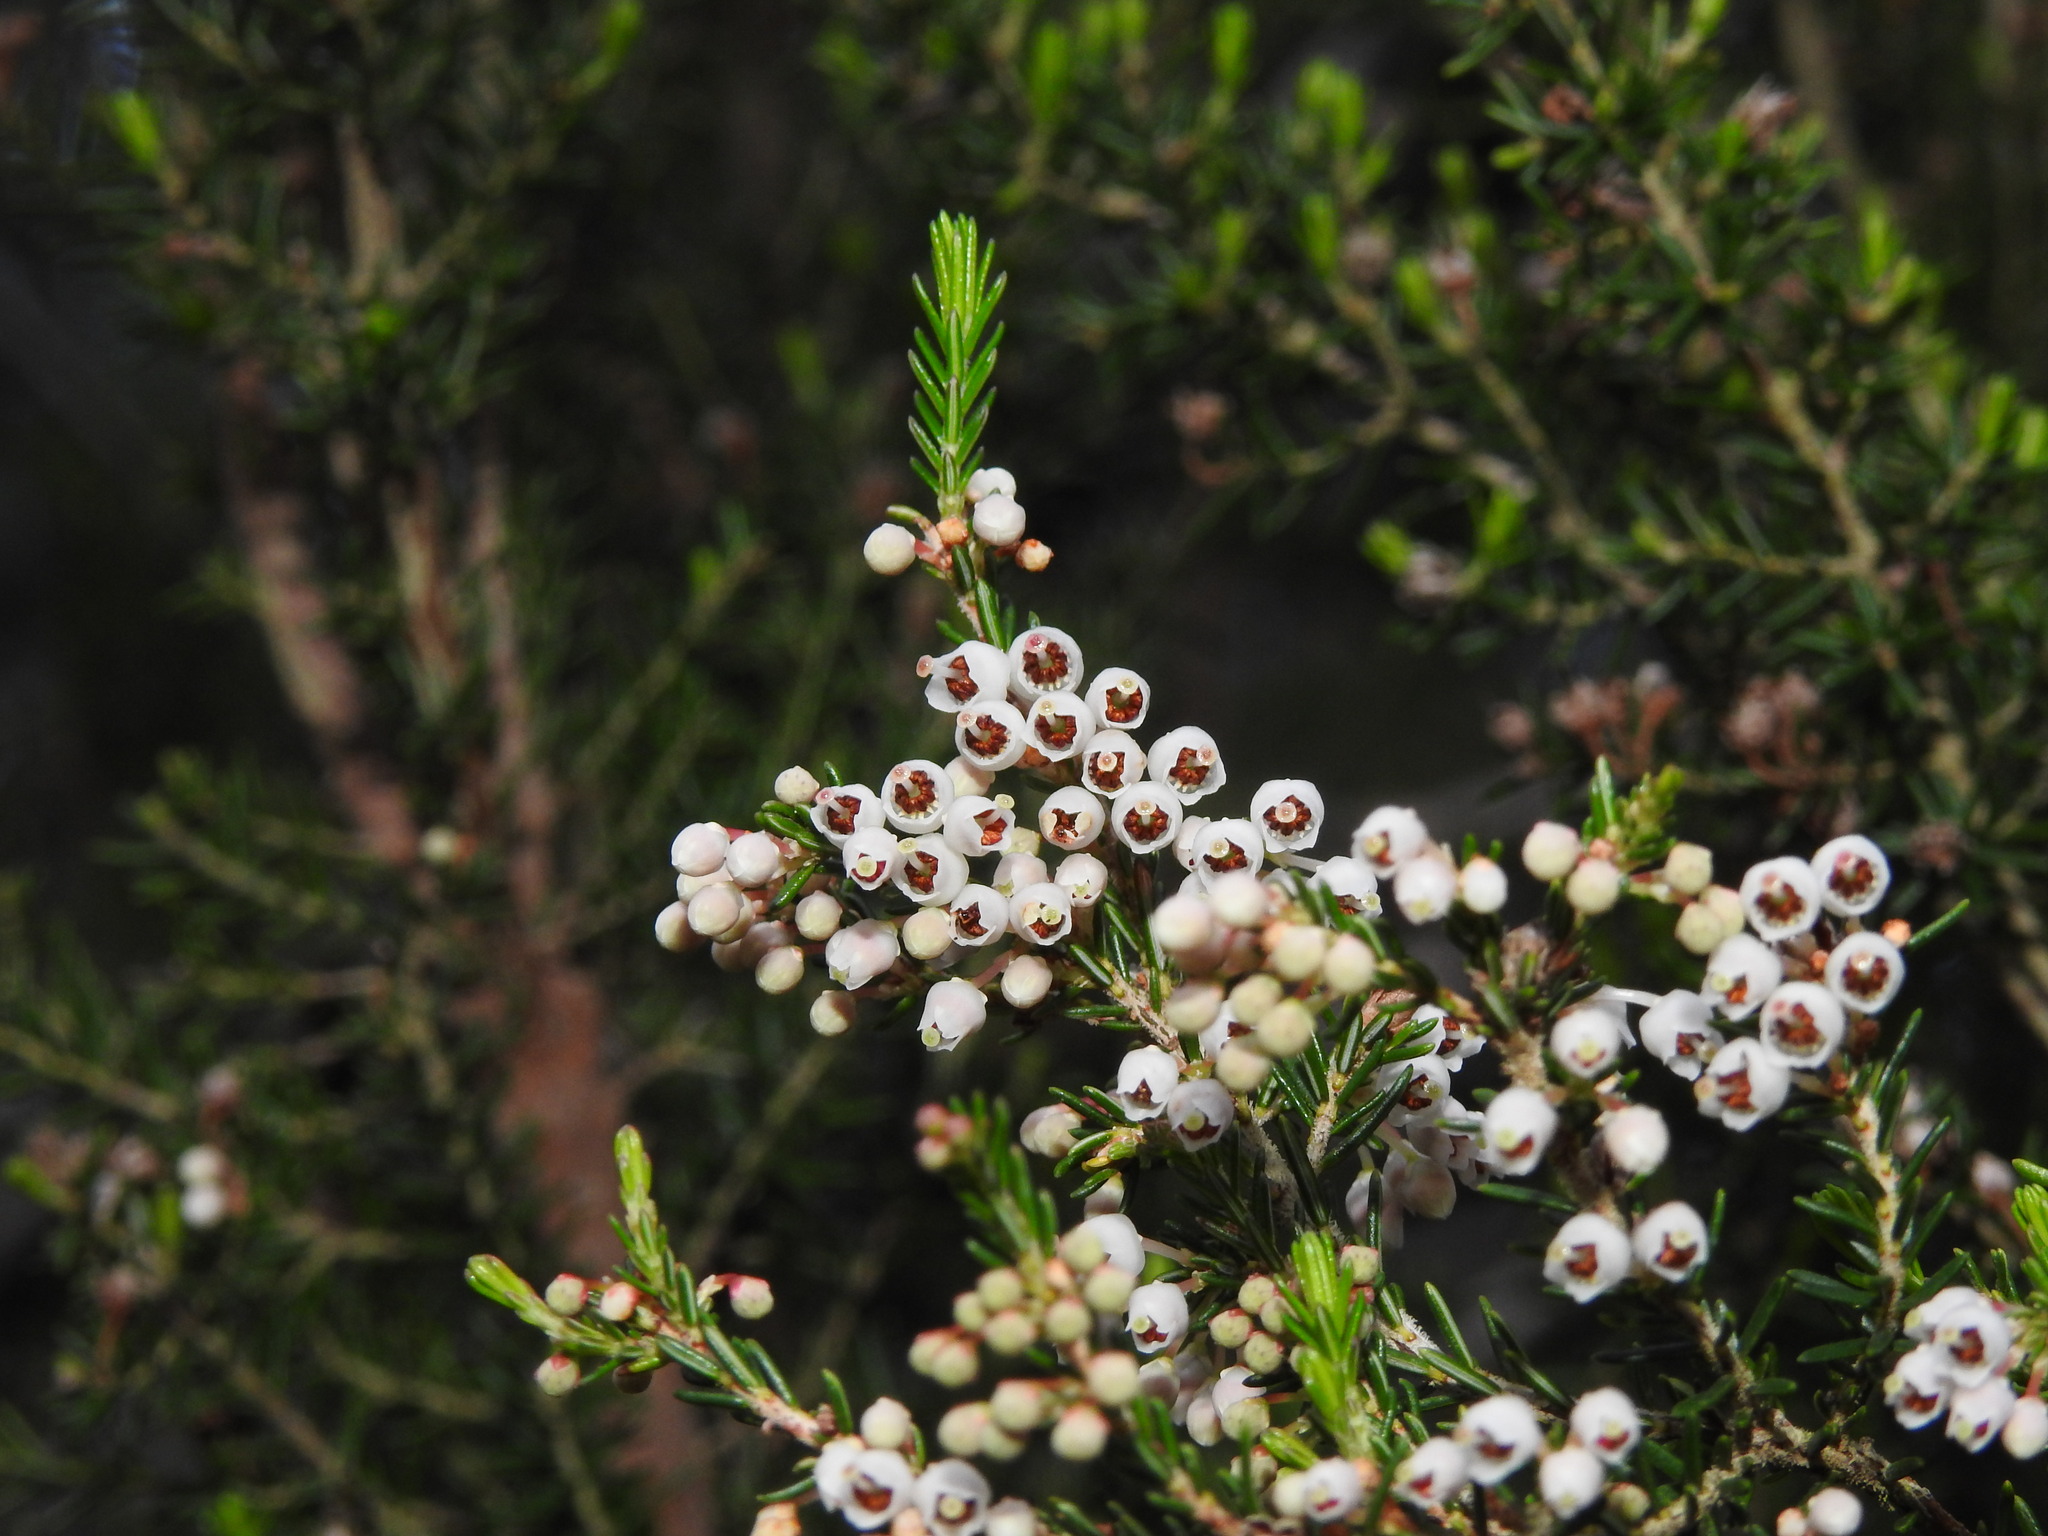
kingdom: Plantae
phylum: Tracheophyta
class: Magnoliopsida
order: Ericales
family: Ericaceae
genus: Erica
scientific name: Erica arborea
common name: Tree heath
